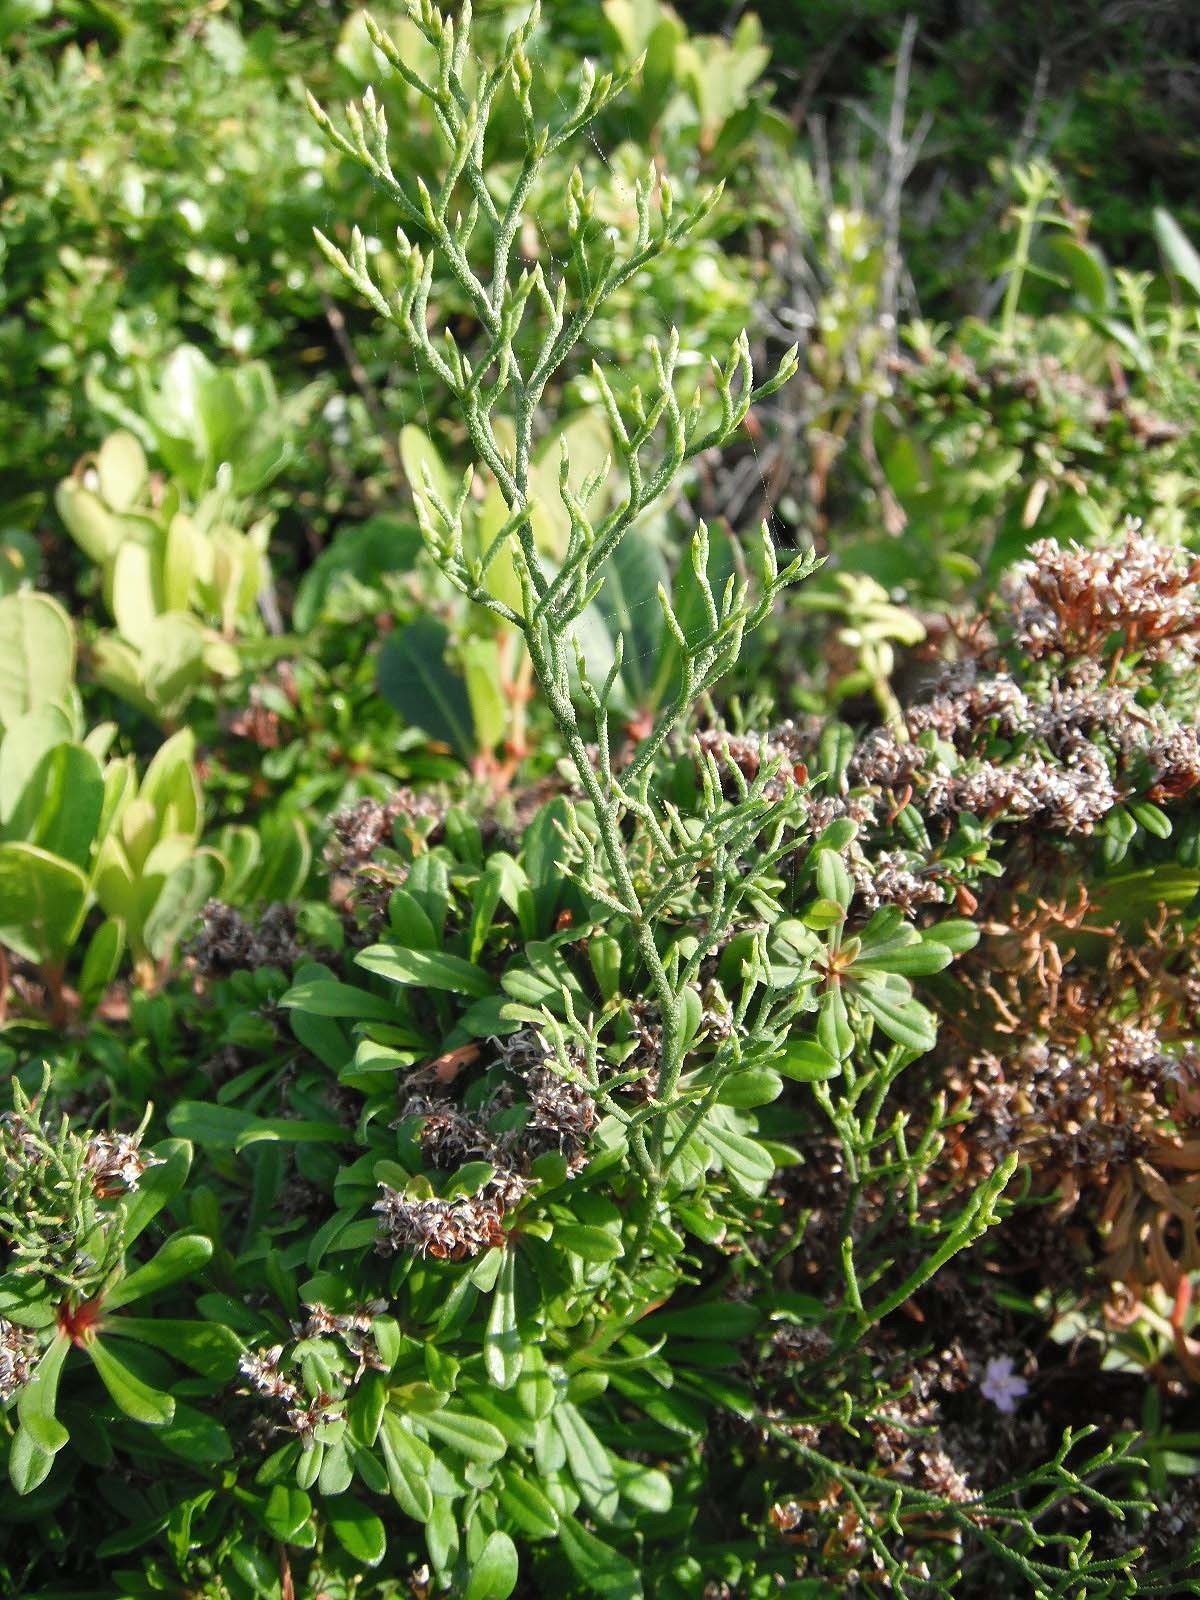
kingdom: Plantae
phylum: Tracheophyta
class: Magnoliopsida
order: Caryophyllales
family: Plumbaginaceae
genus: Limonium
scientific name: Limonium scabrum
